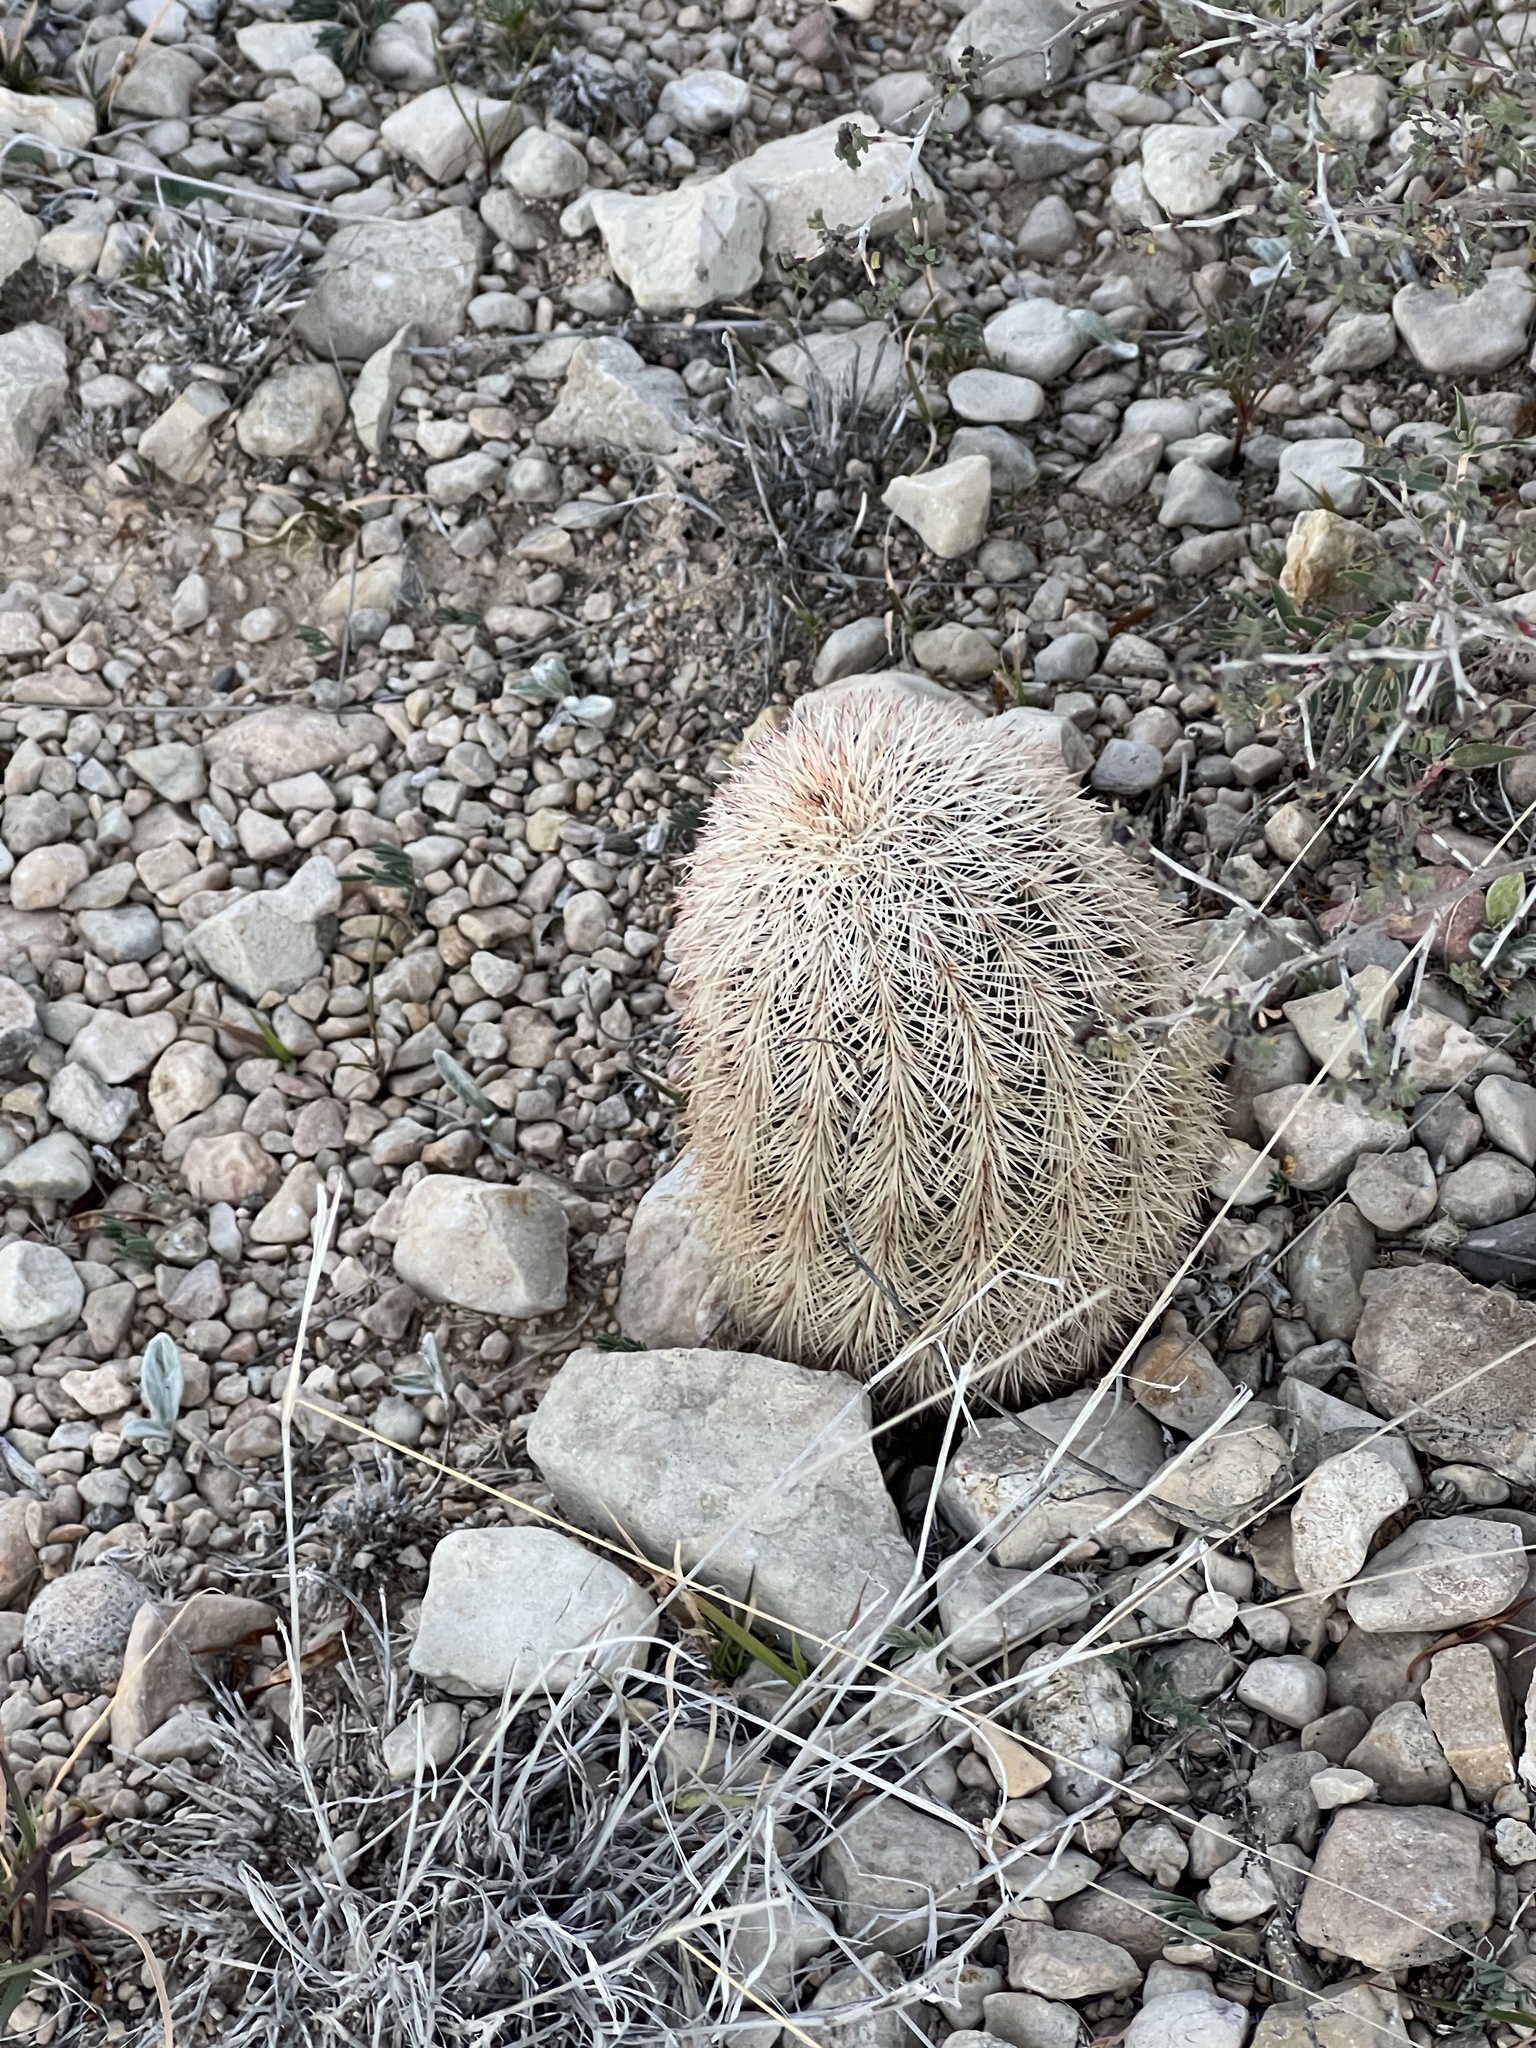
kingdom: Plantae
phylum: Tracheophyta
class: Magnoliopsida
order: Caryophyllales
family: Cactaceae
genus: Echinocereus
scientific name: Echinocereus dasyacanthus
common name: Spiny hedgehog cactus
